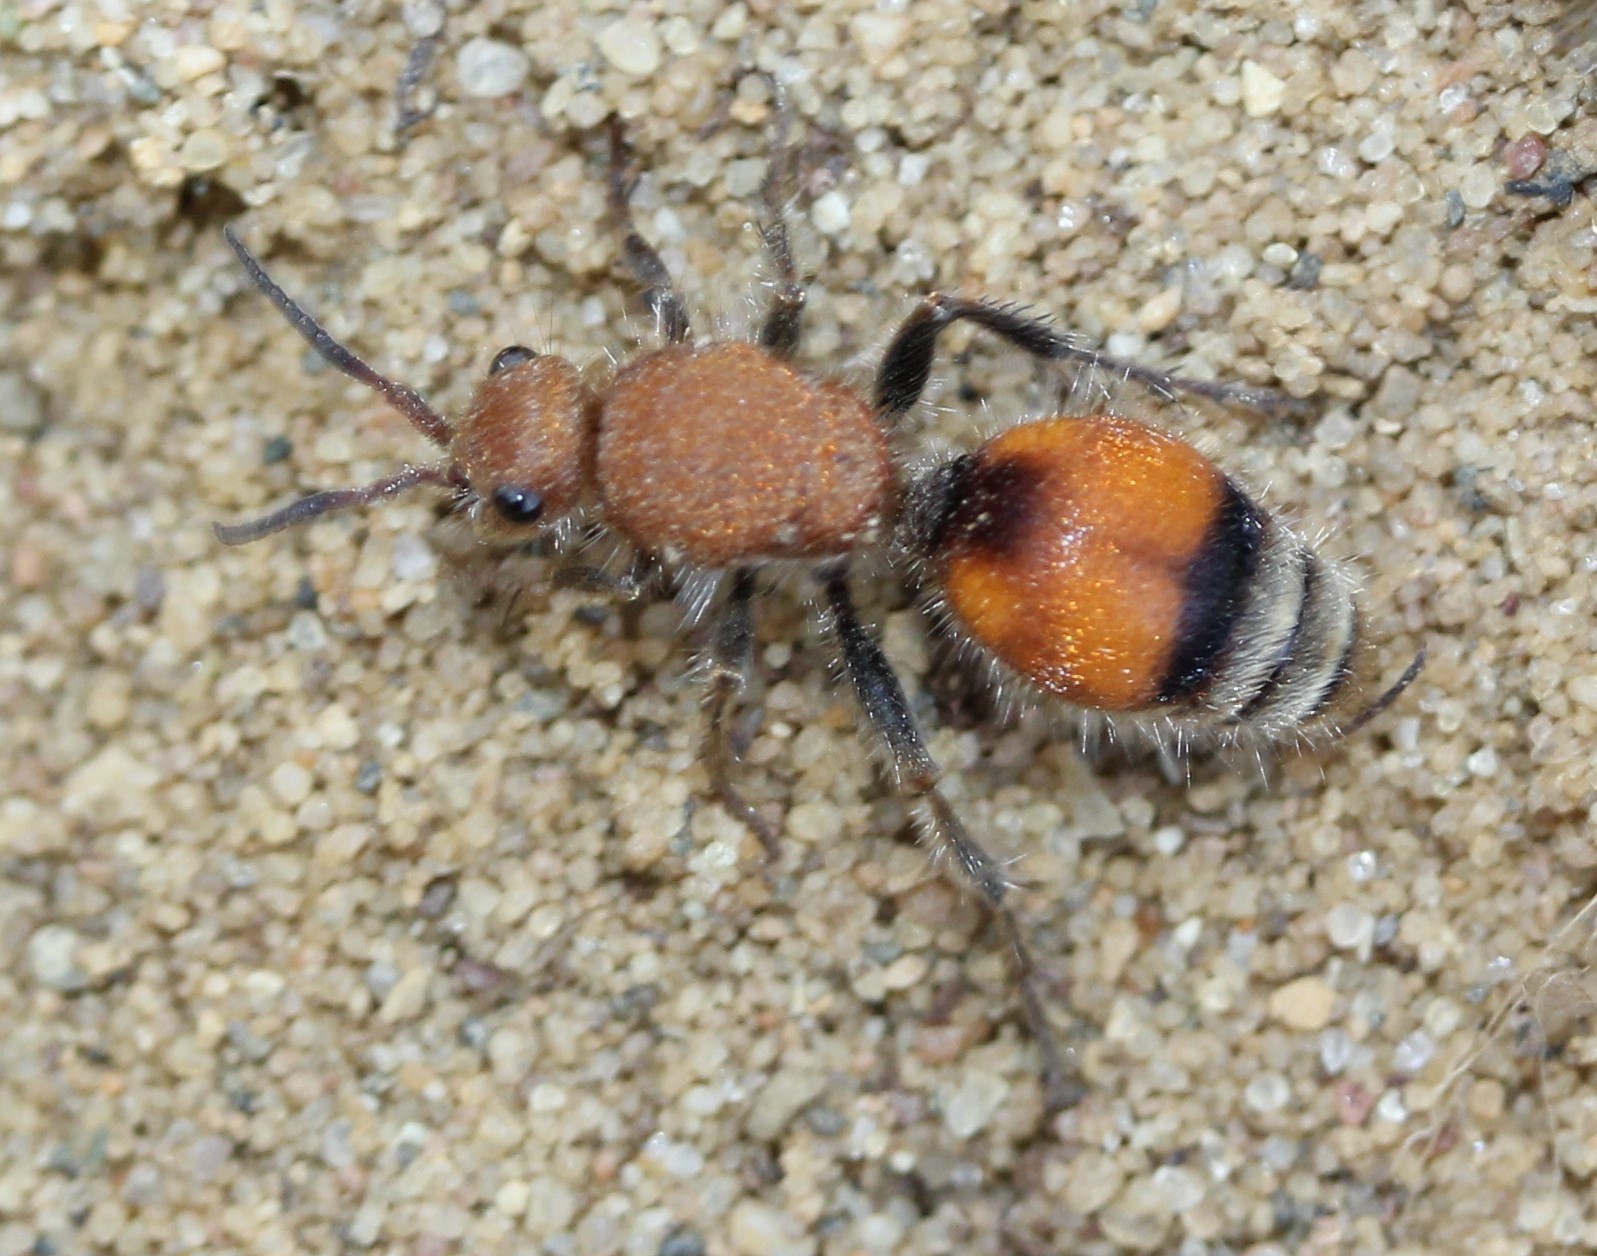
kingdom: Animalia
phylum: Arthropoda
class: Insecta
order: Hymenoptera
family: Mutillidae
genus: Dasymutilla
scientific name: Dasymutilla
